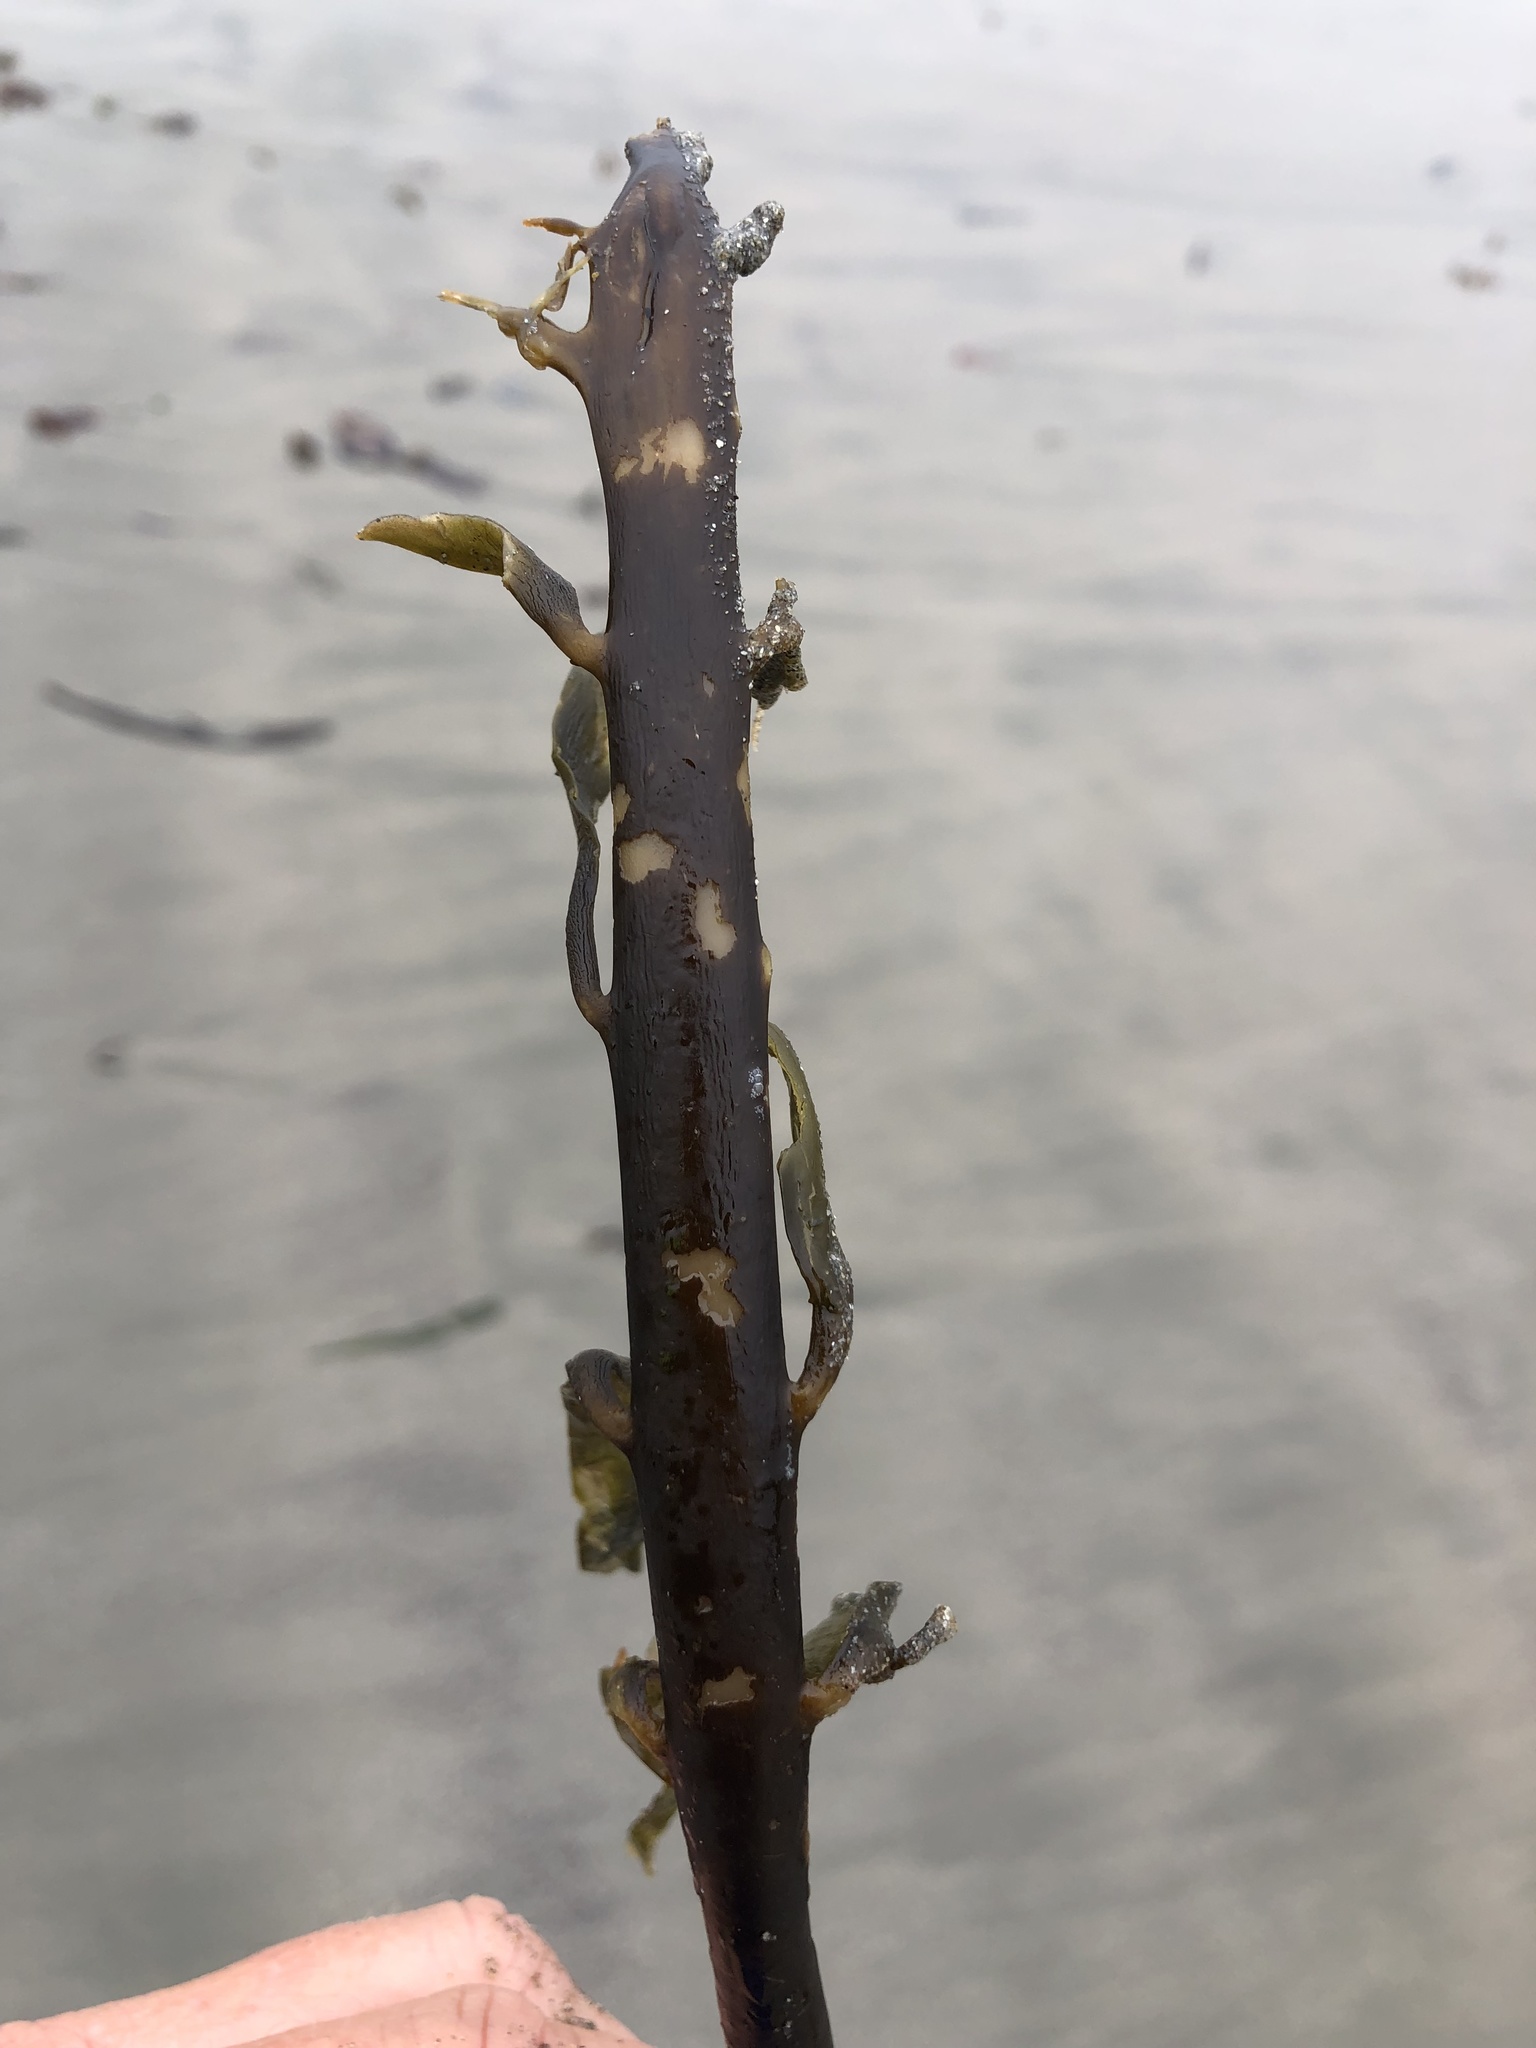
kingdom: Chromista
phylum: Ochrophyta
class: Phaeophyceae
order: Laminariales
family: Alariaceae
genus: Pterygophora
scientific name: Pterygophora californica
